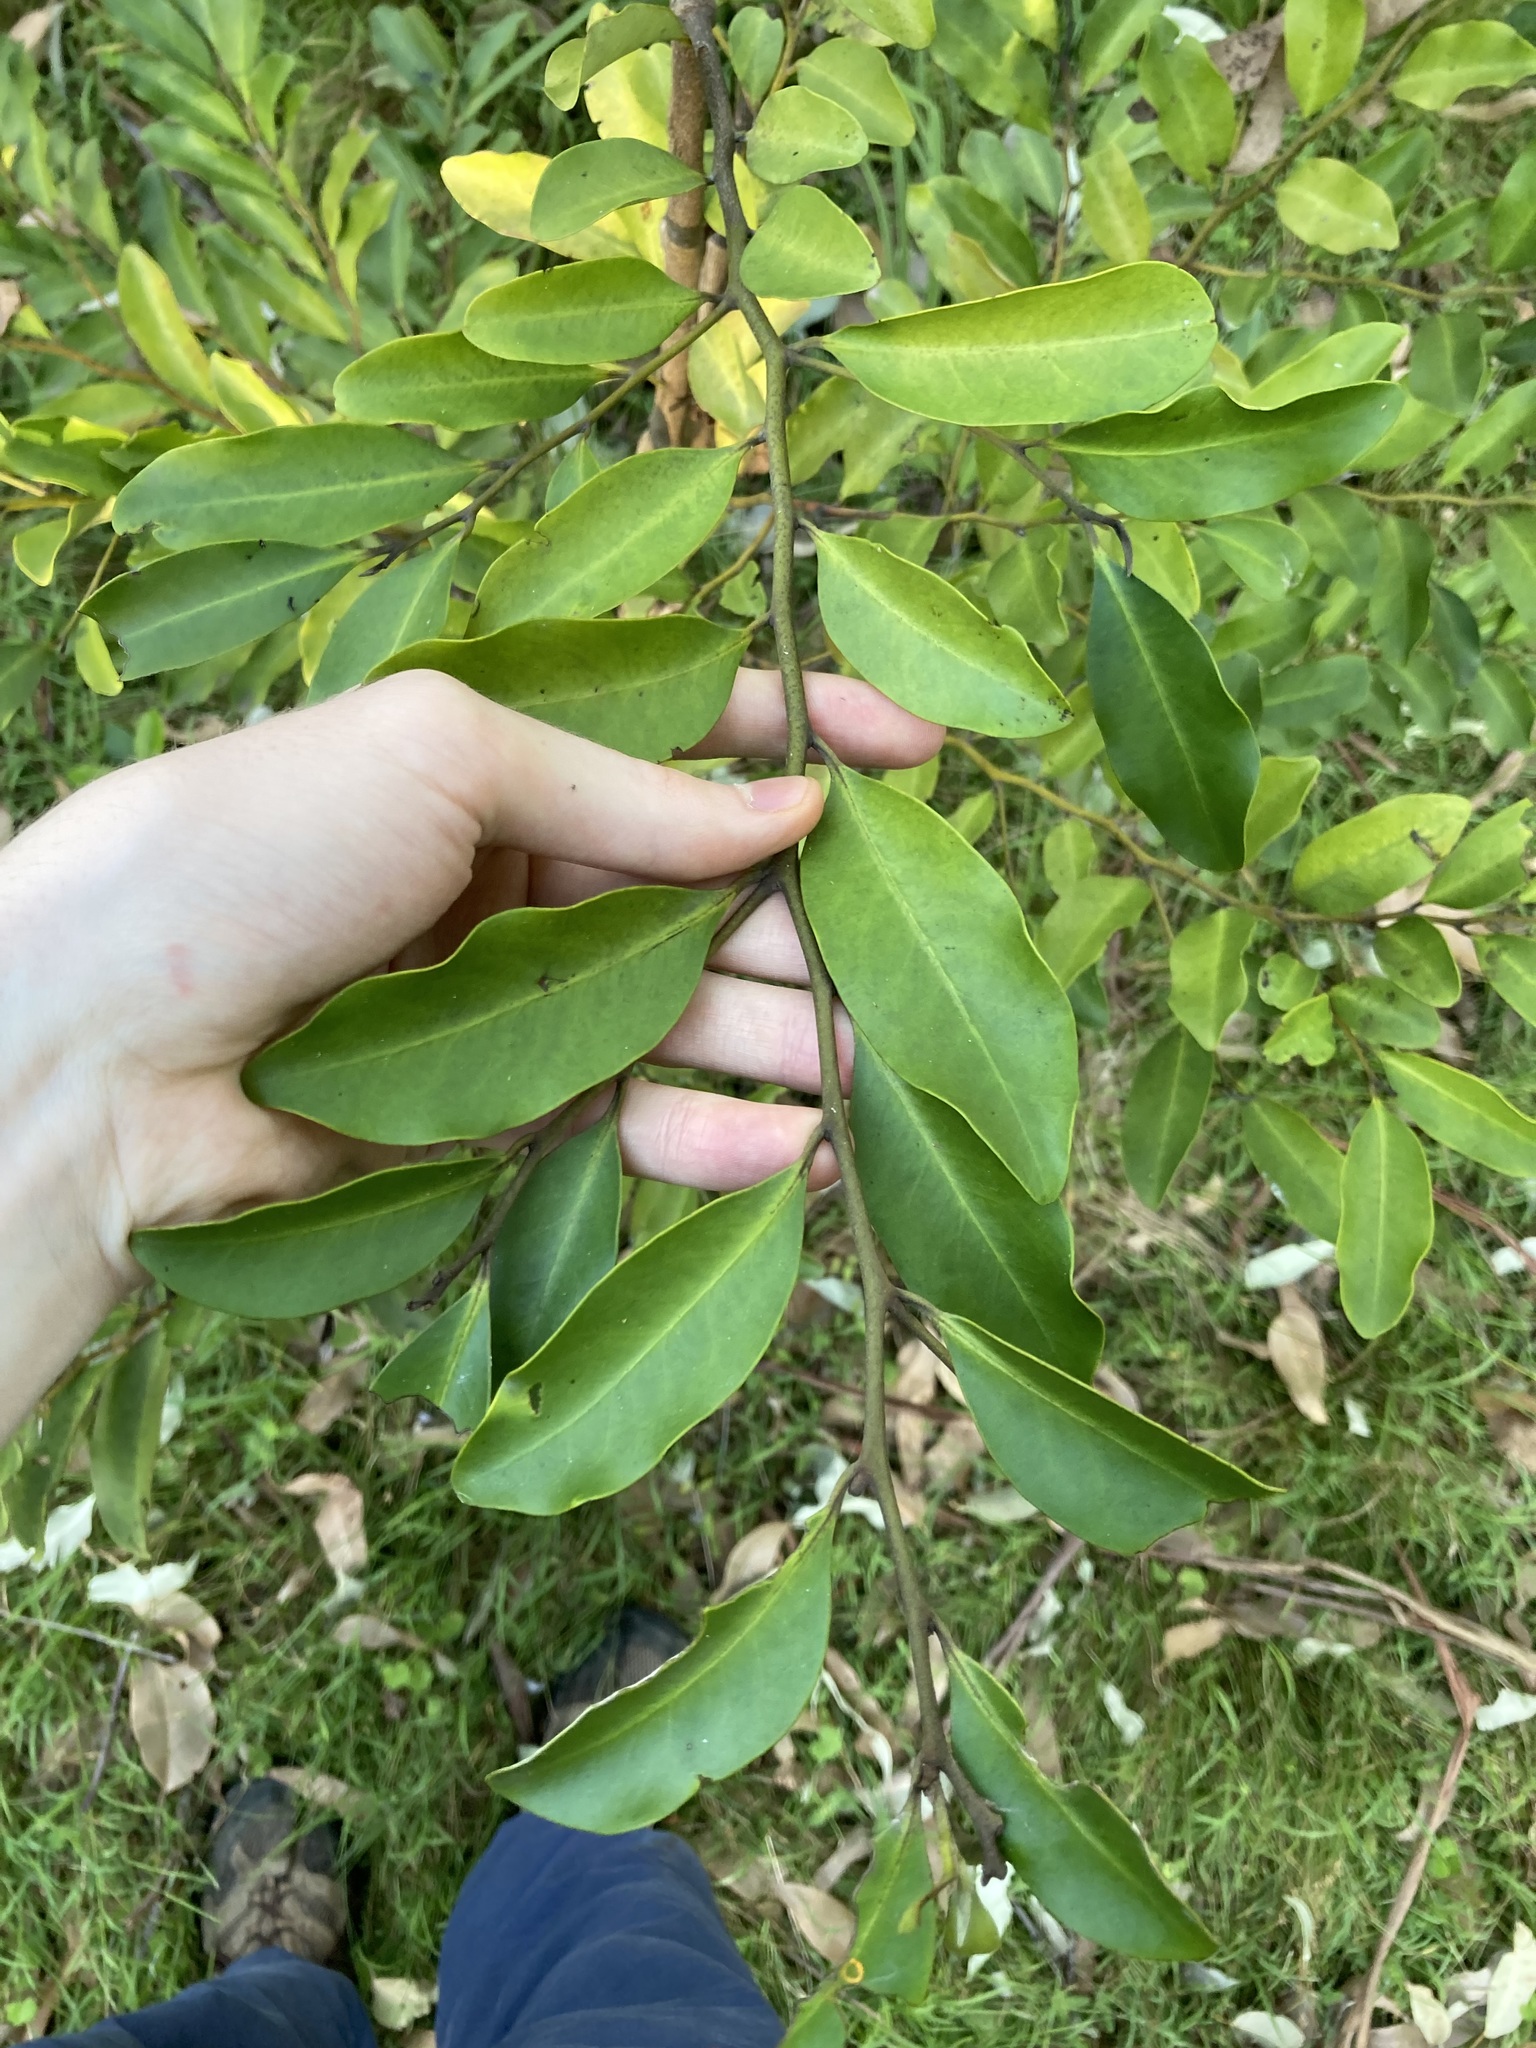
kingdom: Plantae
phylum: Tracheophyta
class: Magnoliopsida
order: Ericales
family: Ebenaceae
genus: Diospyros
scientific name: Diospyros australis
